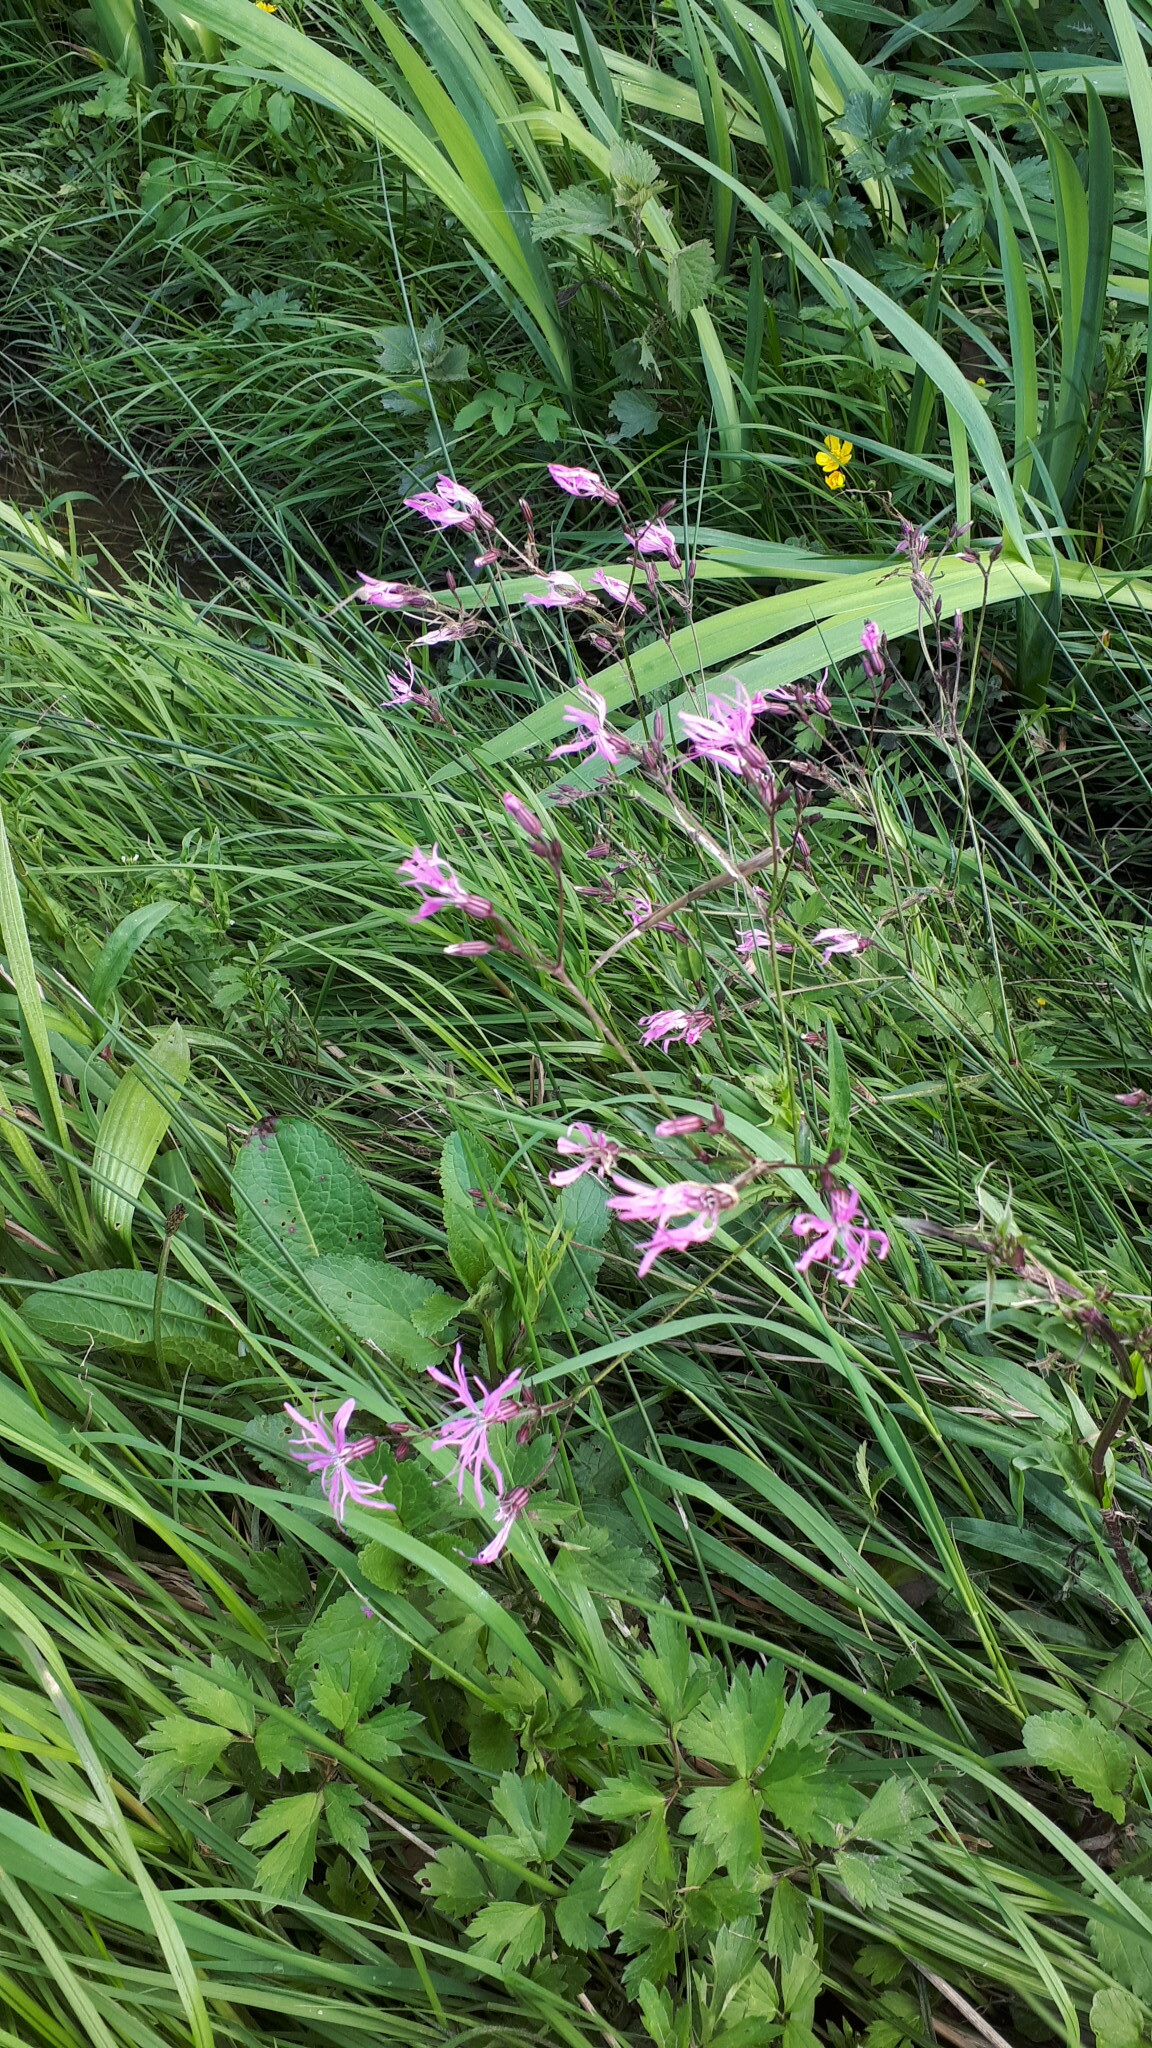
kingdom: Plantae
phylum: Tracheophyta
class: Magnoliopsida
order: Caryophyllales
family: Caryophyllaceae
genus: Silene
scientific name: Silene flos-cuculi
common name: Ragged-robin
